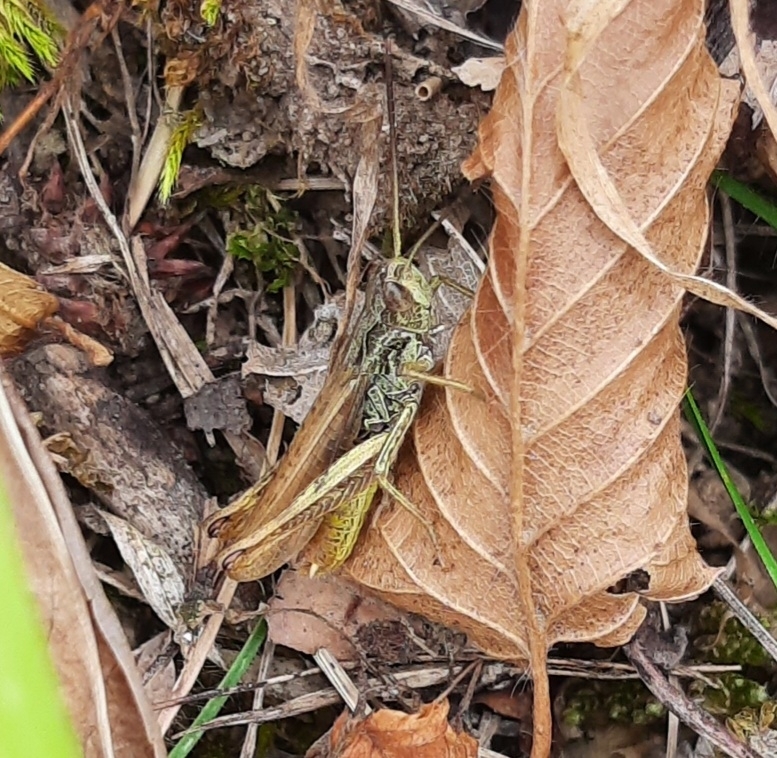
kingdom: Animalia
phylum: Arthropoda
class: Insecta
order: Orthoptera
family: Acrididae
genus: Chorthippus
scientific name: Chorthippus apricarius
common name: Upland field grasshopper
